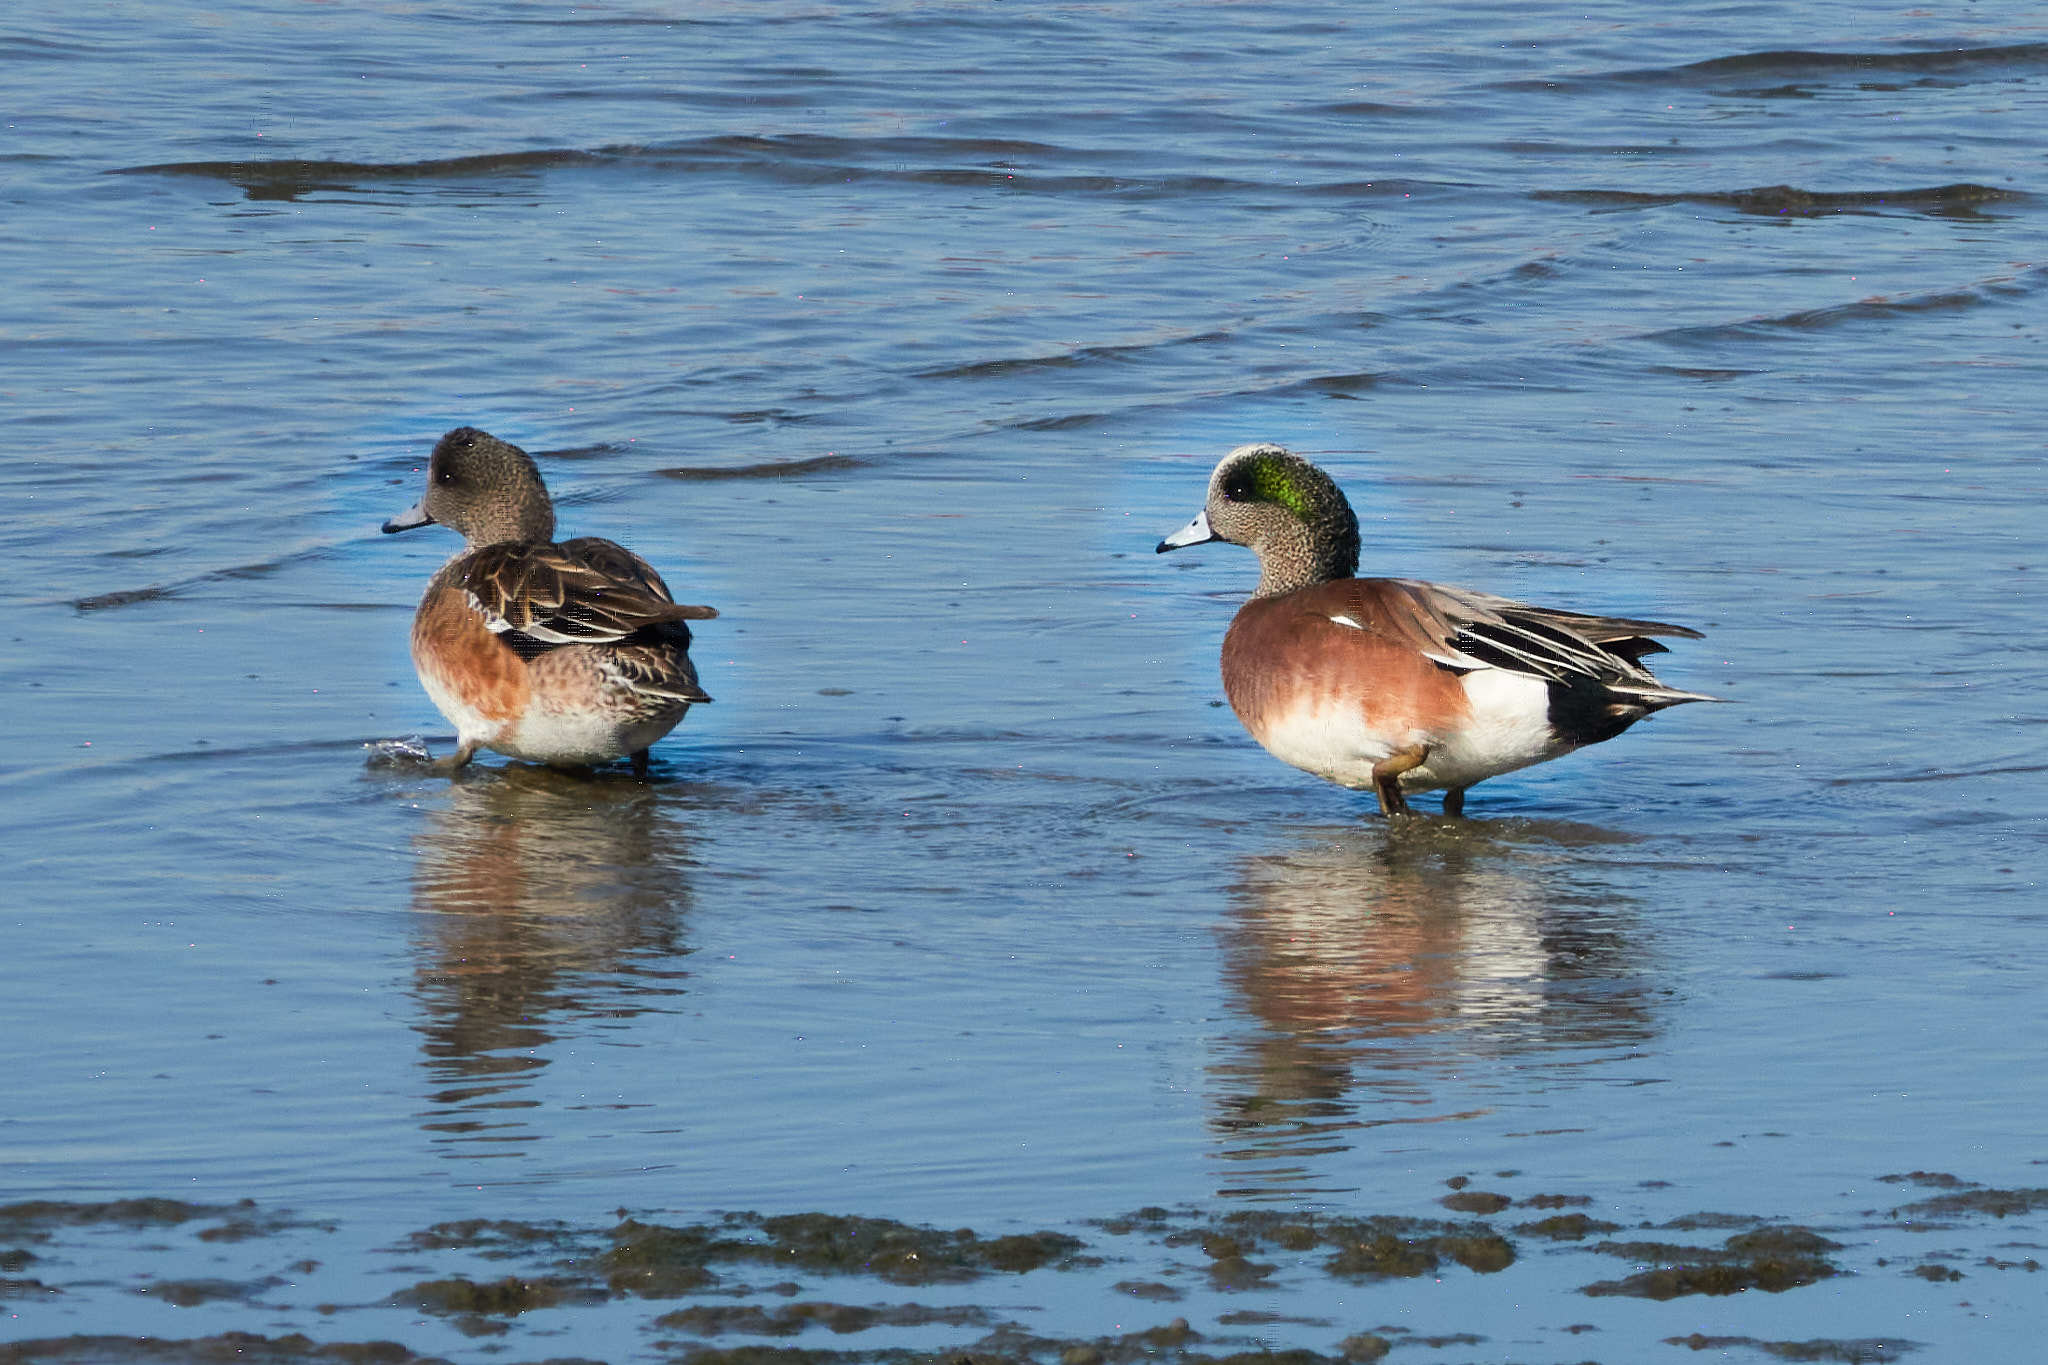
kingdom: Animalia
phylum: Chordata
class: Aves
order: Anseriformes
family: Anatidae
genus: Mareca
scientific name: Mareca americana
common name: American wigeon
